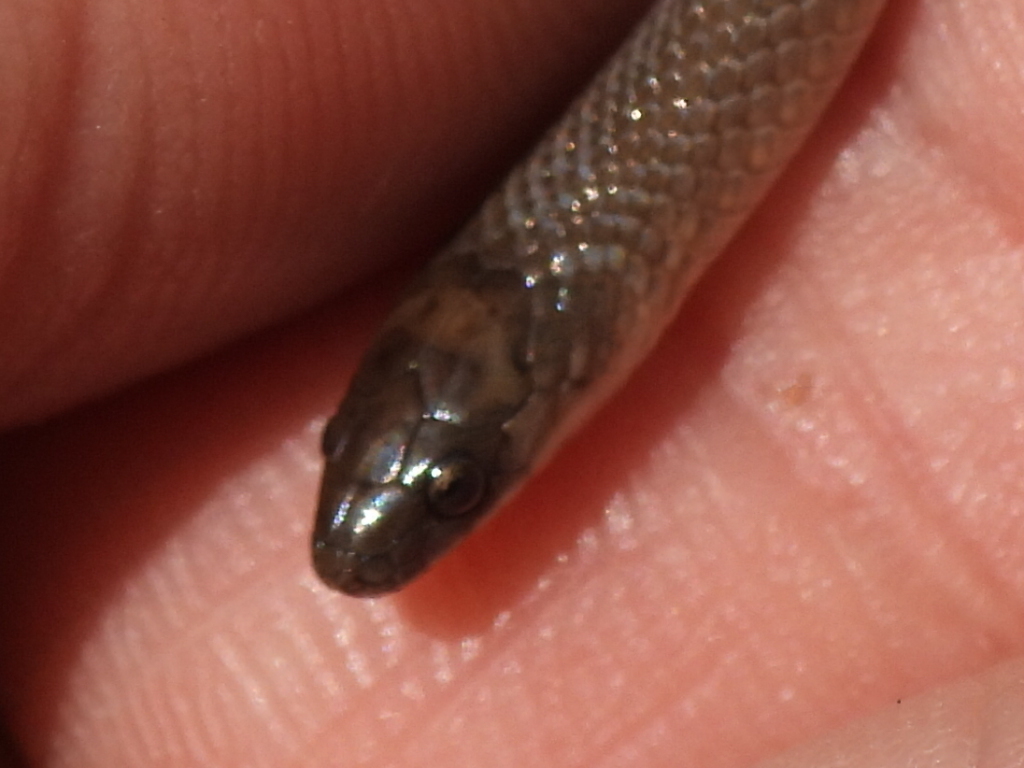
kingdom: Animalia
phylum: Chordata
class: Squamata
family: Colubridae
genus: Haldea
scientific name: Haldea striatula
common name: Rough earth snake
